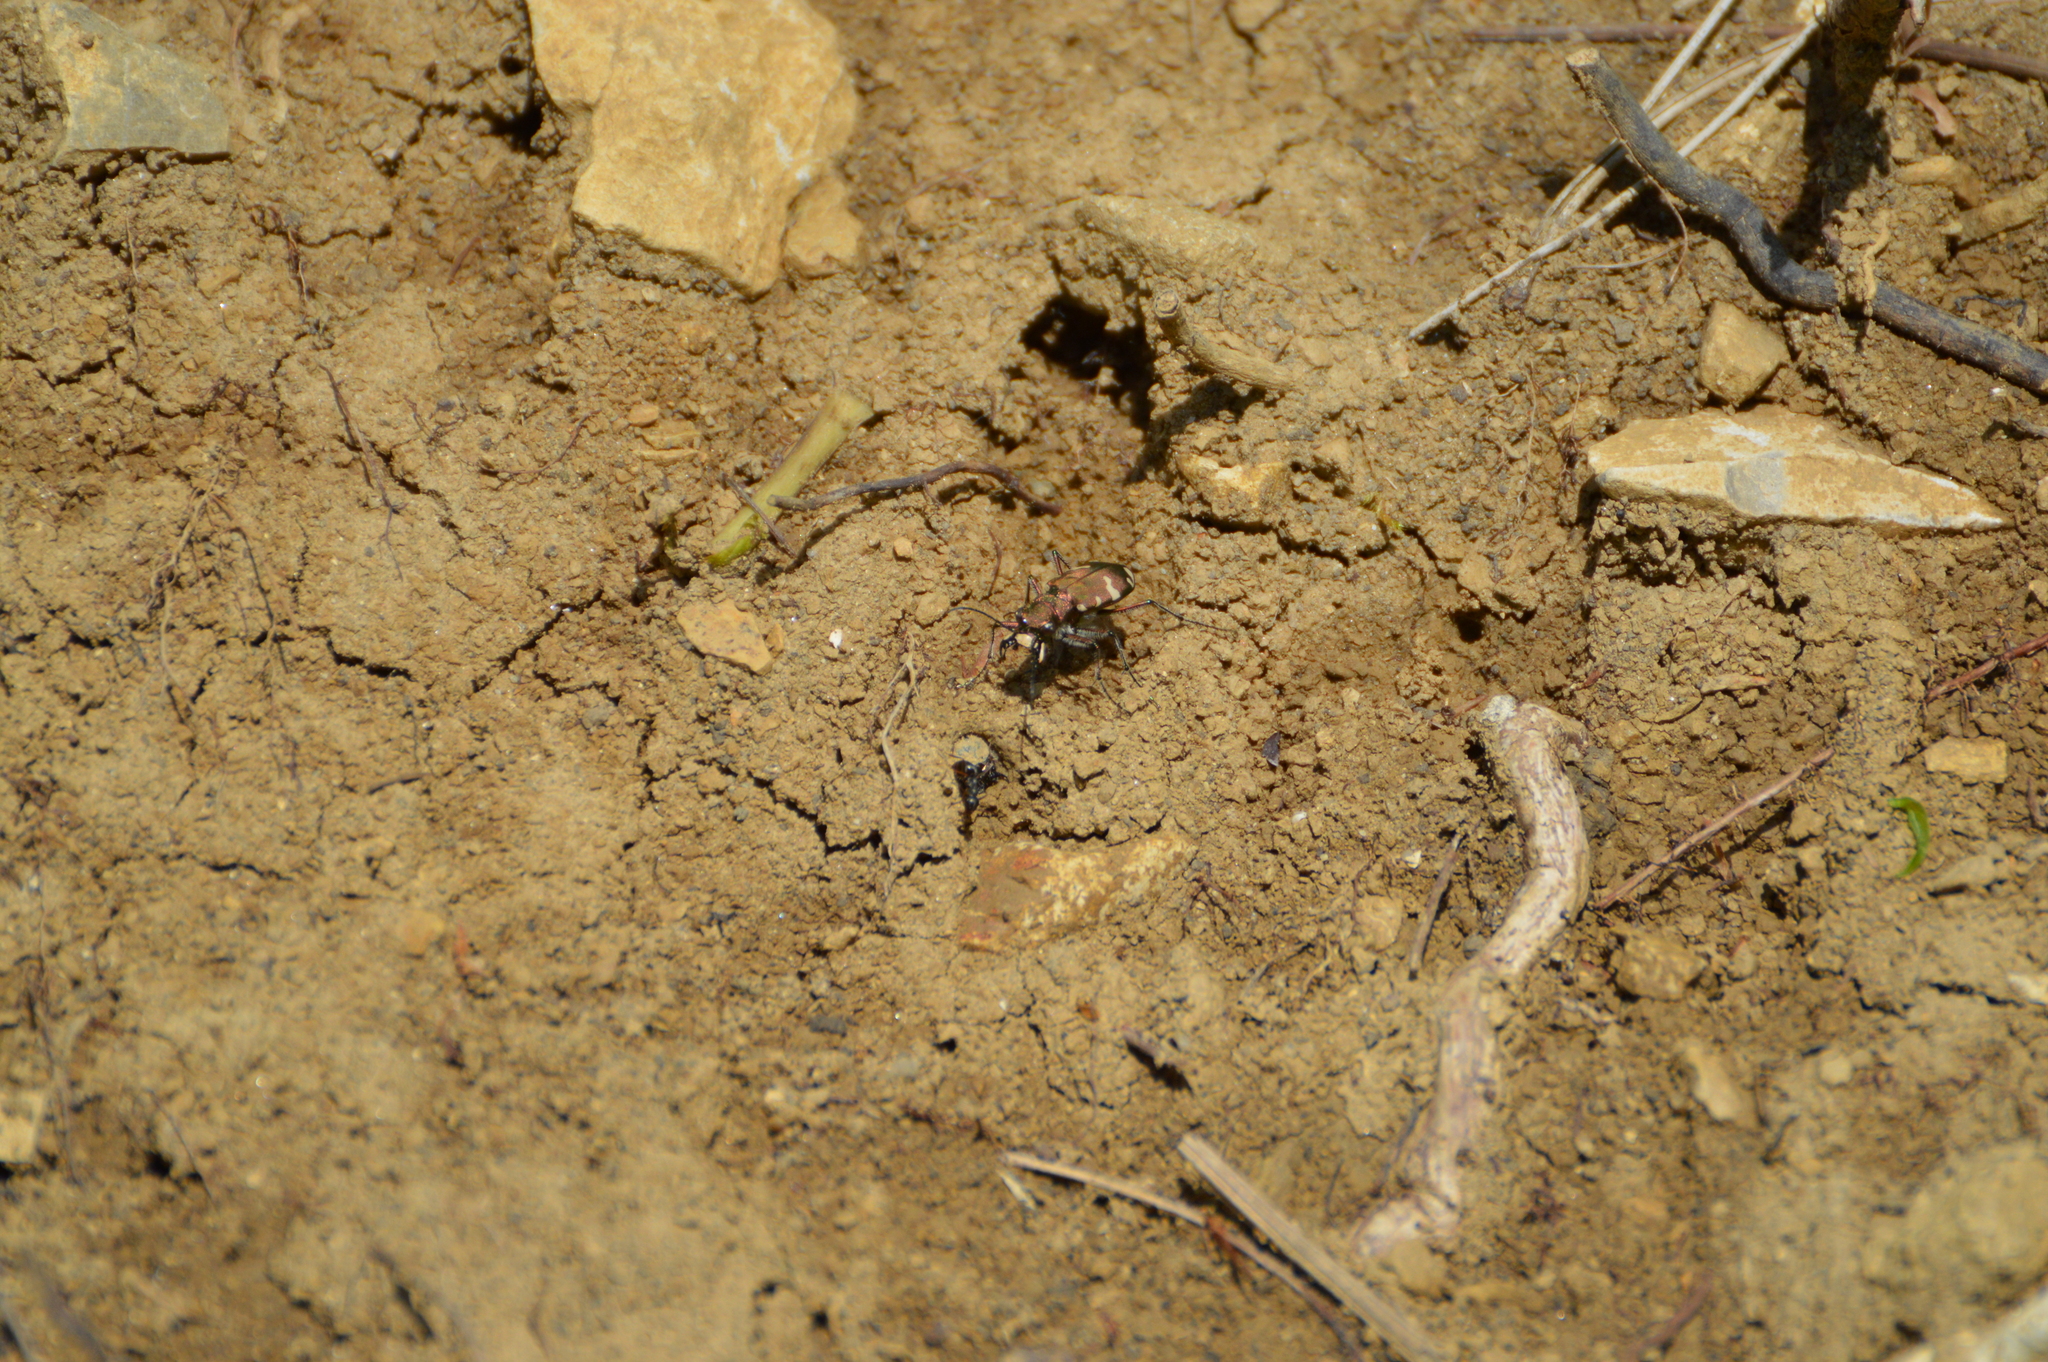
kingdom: Animalia
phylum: Arthropoda
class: Insecta
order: Coleoptera
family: Carabidae
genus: Cicindela
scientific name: Cicindela sylvicola
